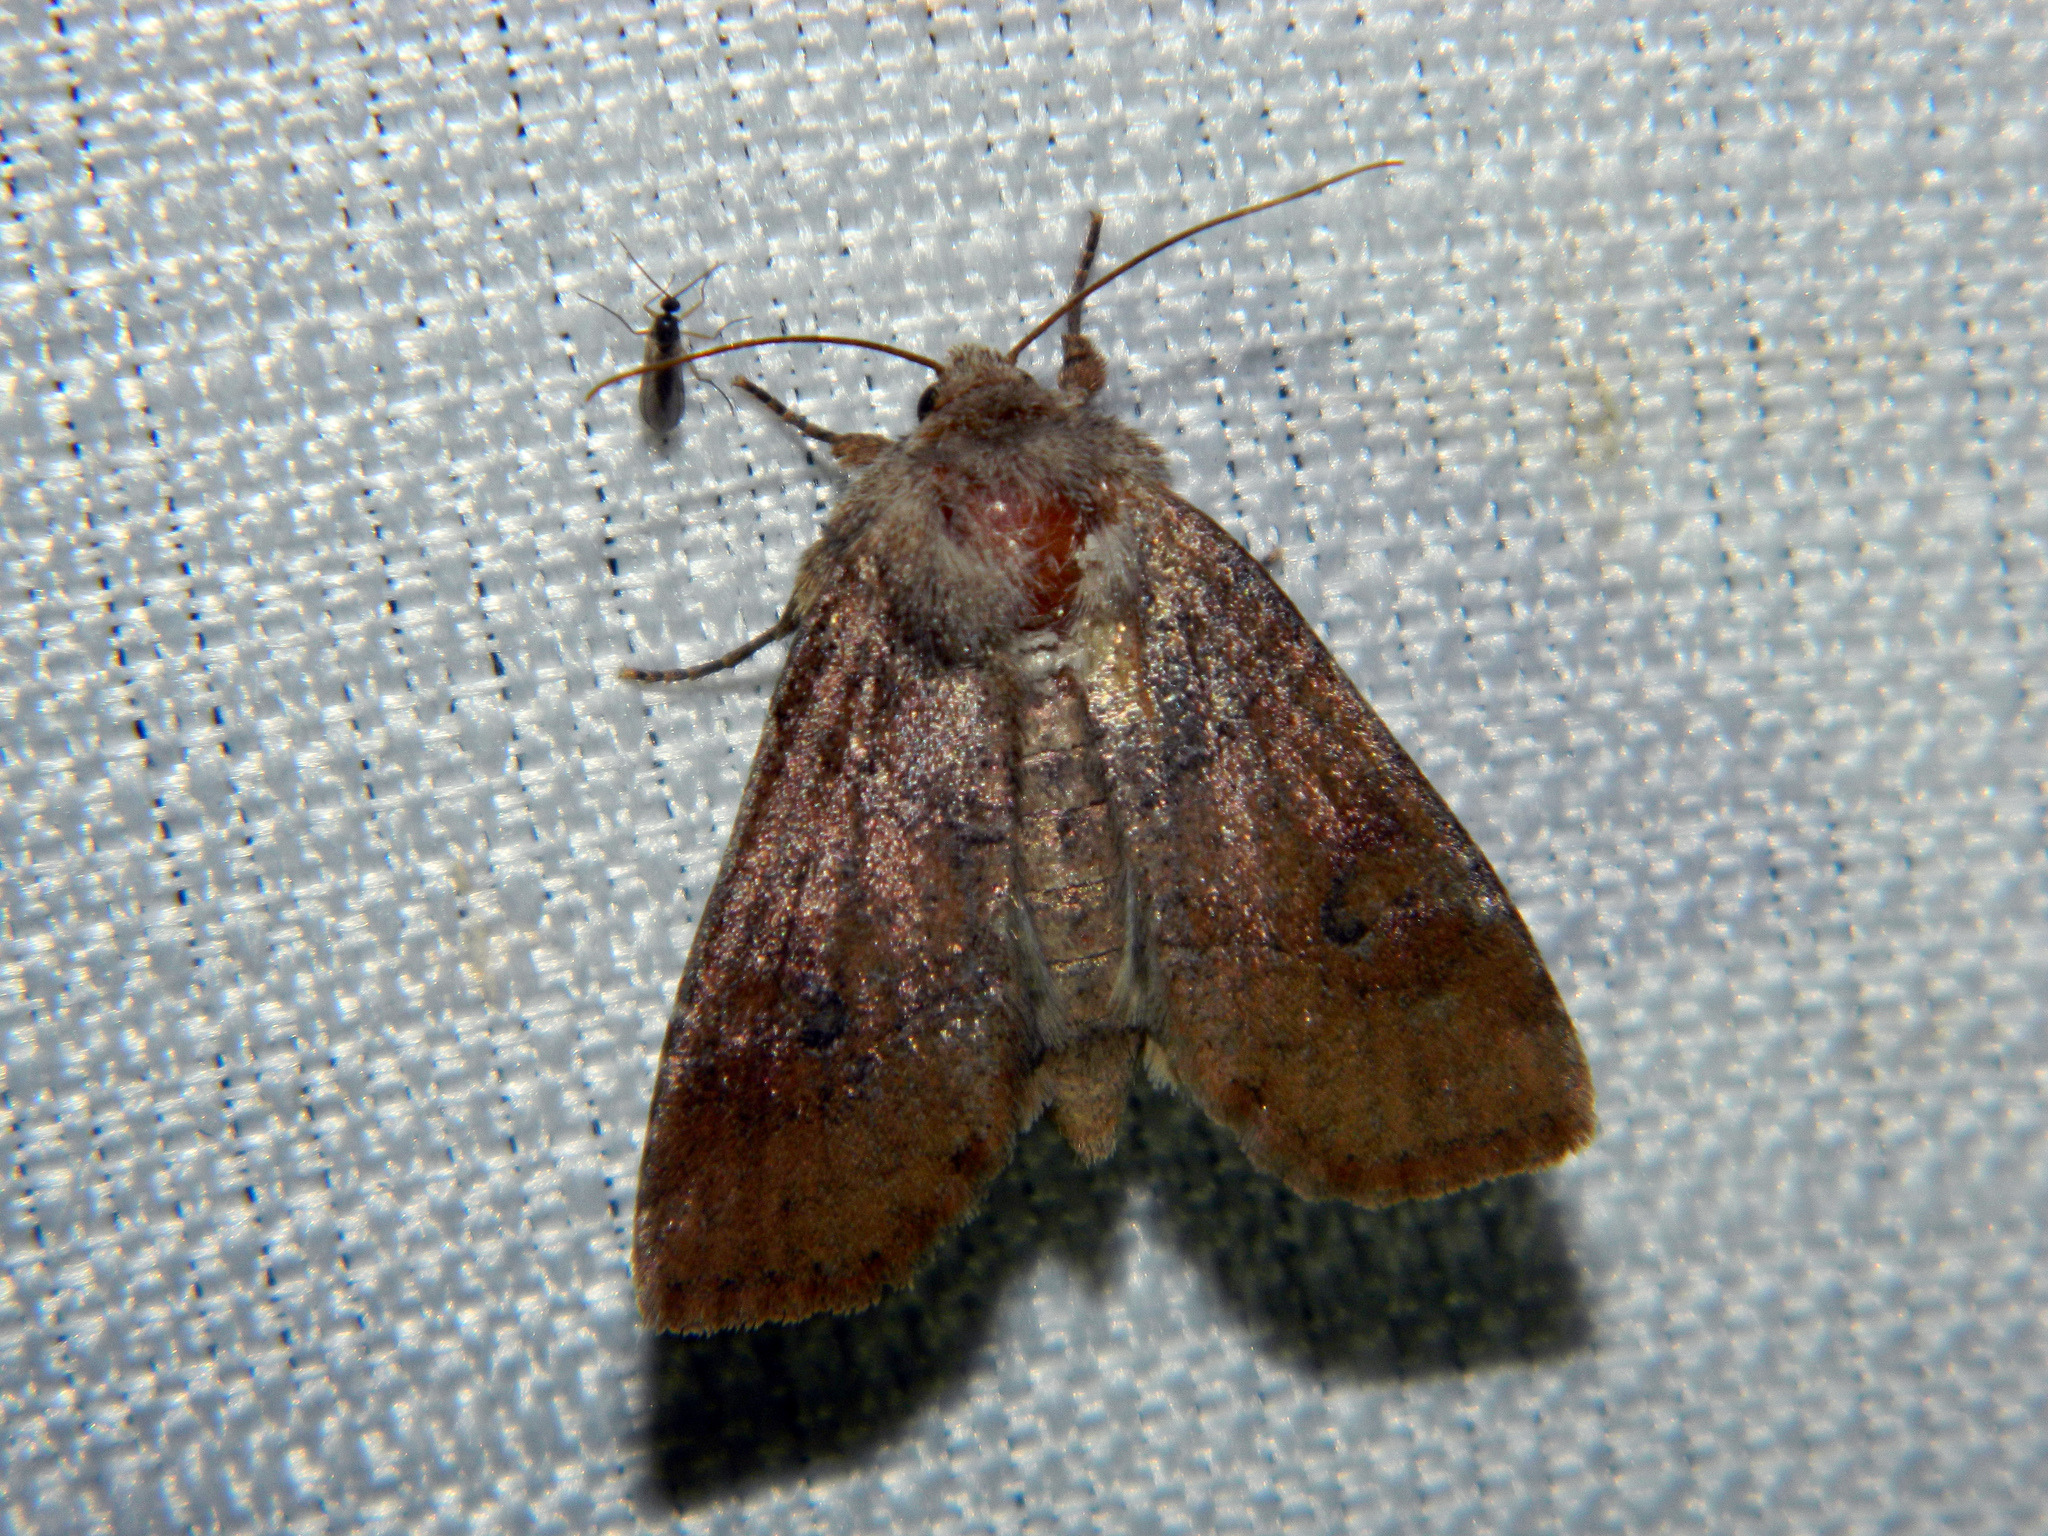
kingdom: Animalia
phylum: Arthropoda
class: Insecta
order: Lepidoptera
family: Noctuidae
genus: Crocigrapha
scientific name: Crocigrapha normani
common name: Norman's quaker
